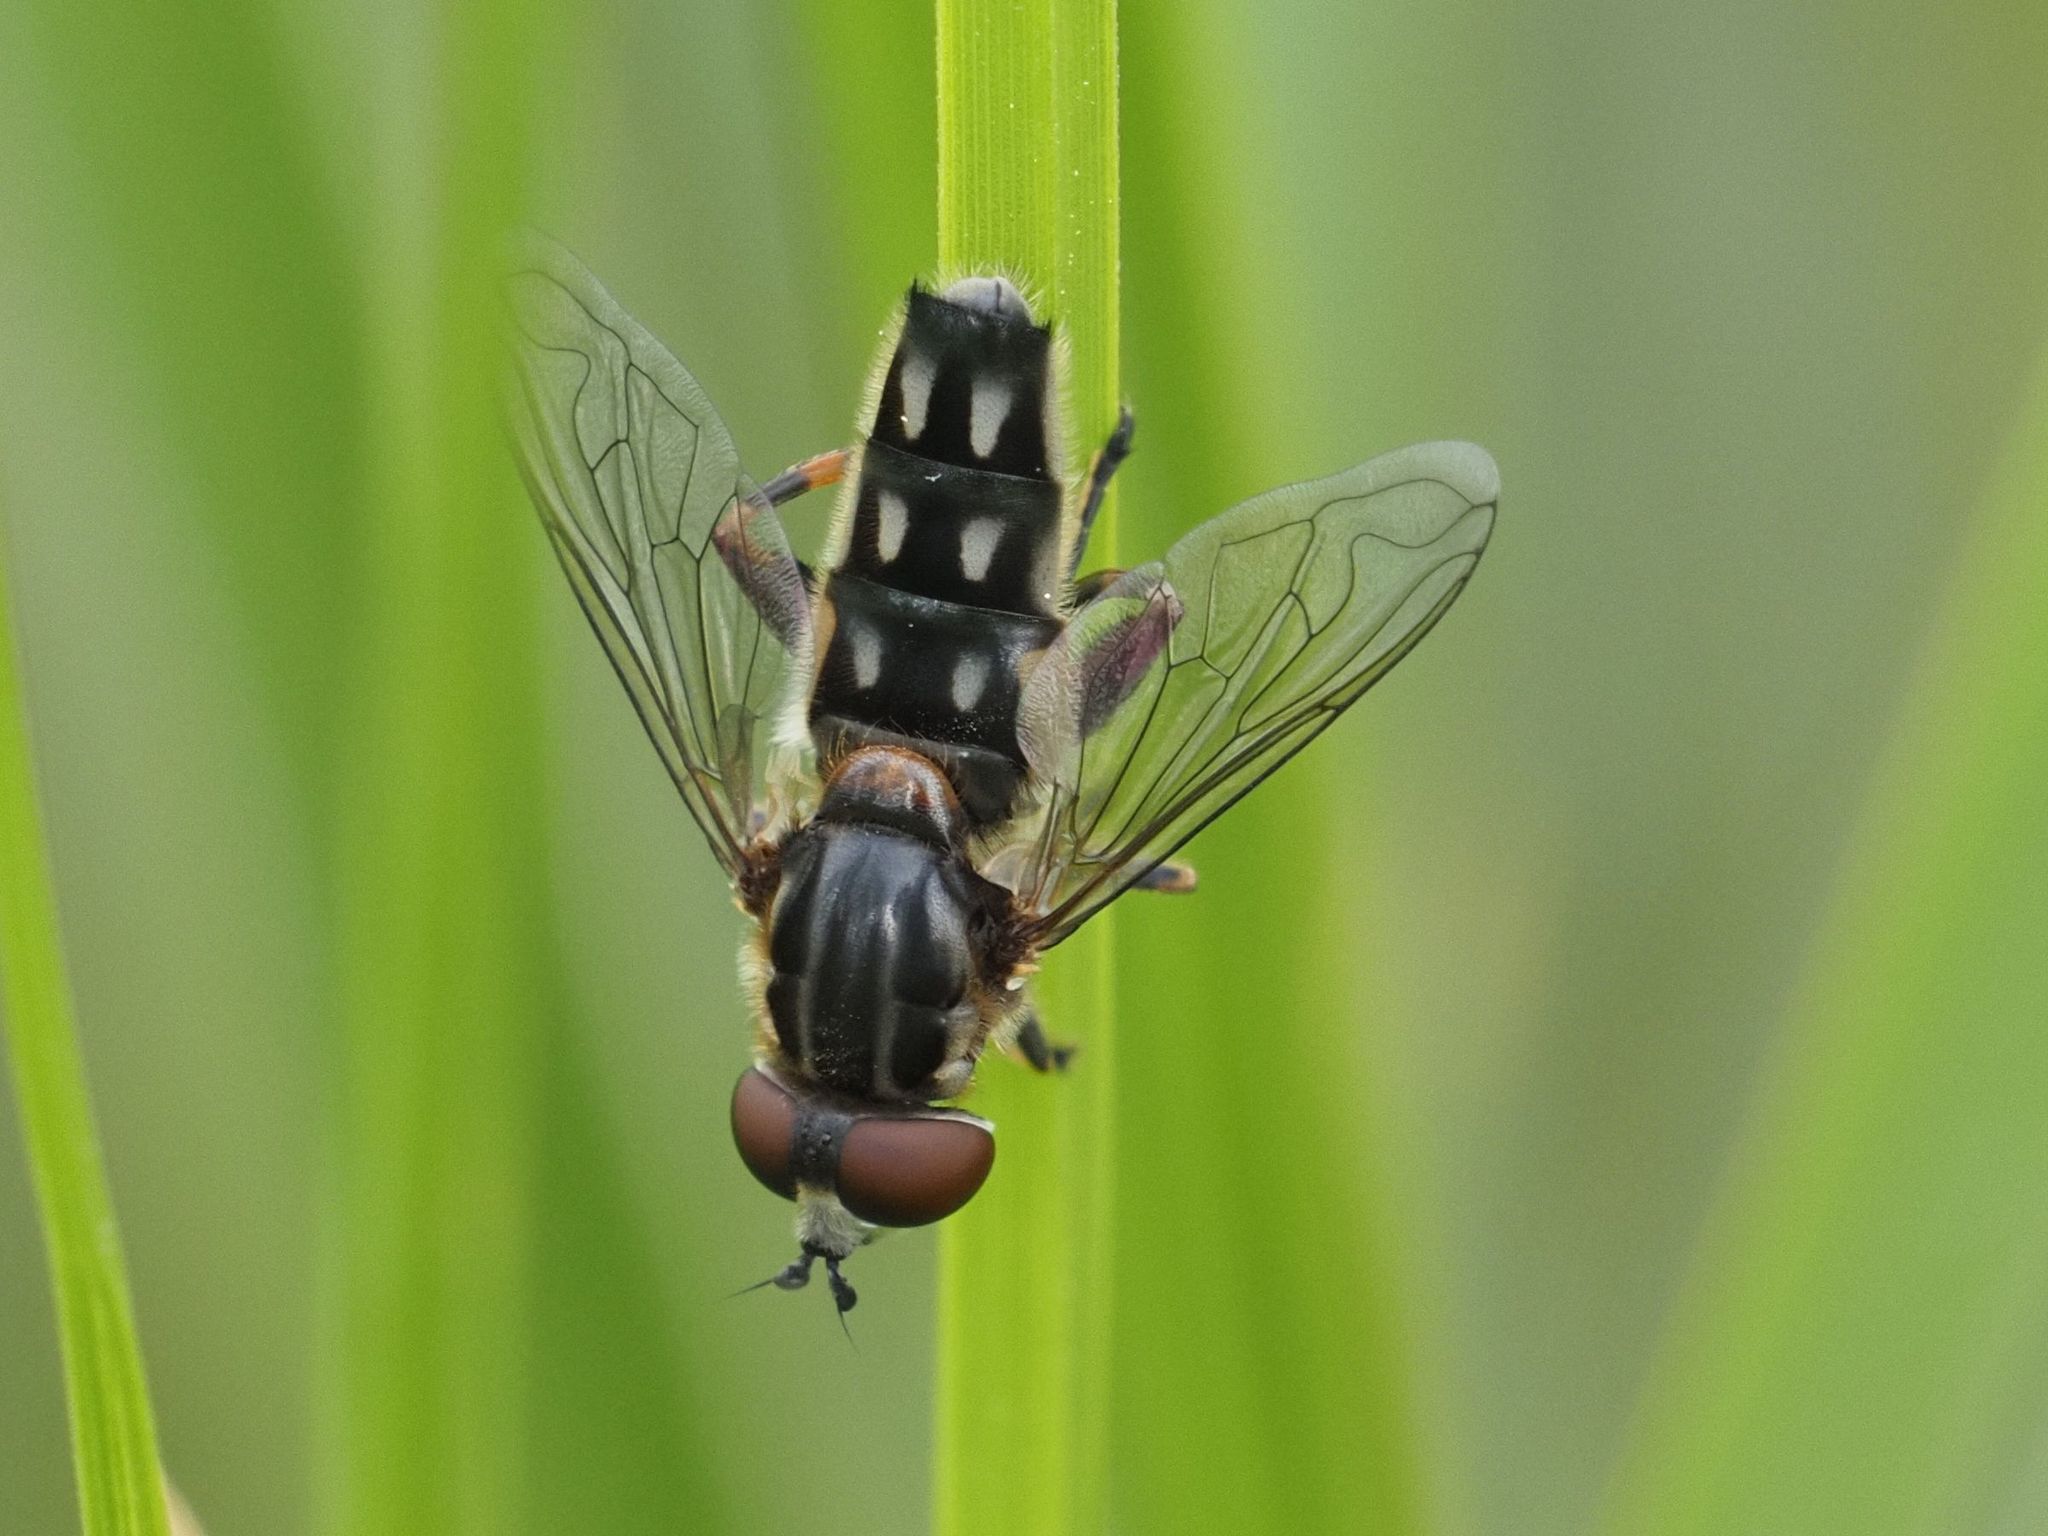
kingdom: Animalia
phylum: Arthropoda
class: Insecta
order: Diptera
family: Syrphidae
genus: Lejops
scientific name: Lejops vittatus
